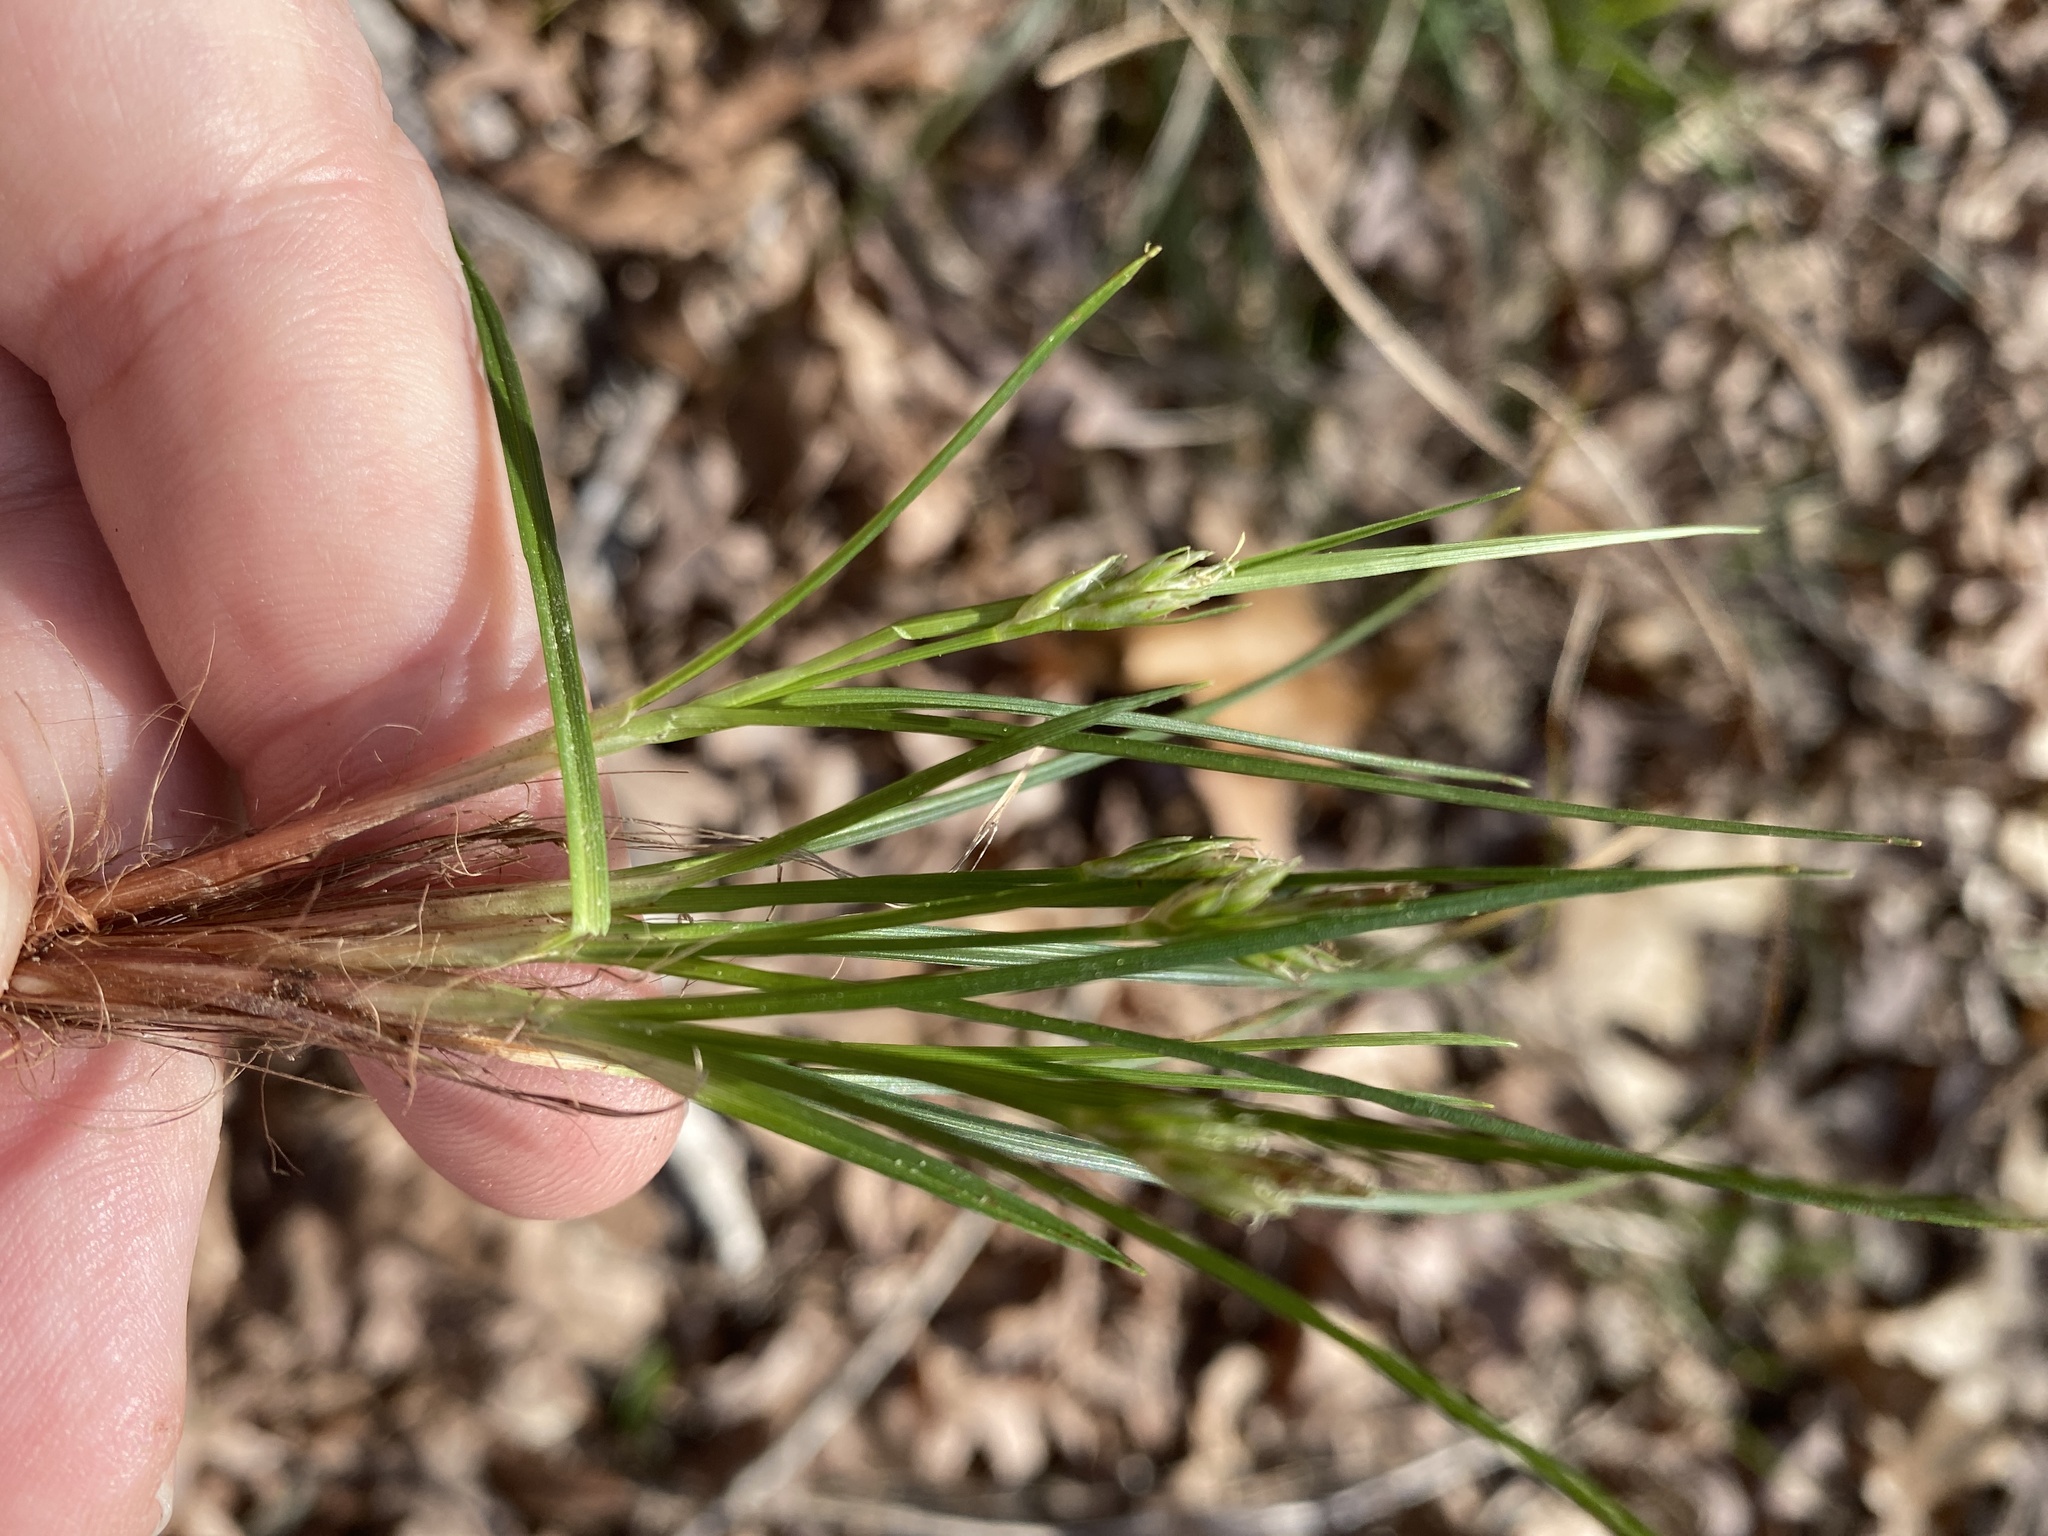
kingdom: Plantae
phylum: Tracheophyta
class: Liliopsida
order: Poales
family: Cyperaceae
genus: Carex
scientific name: Carex reznicekii
